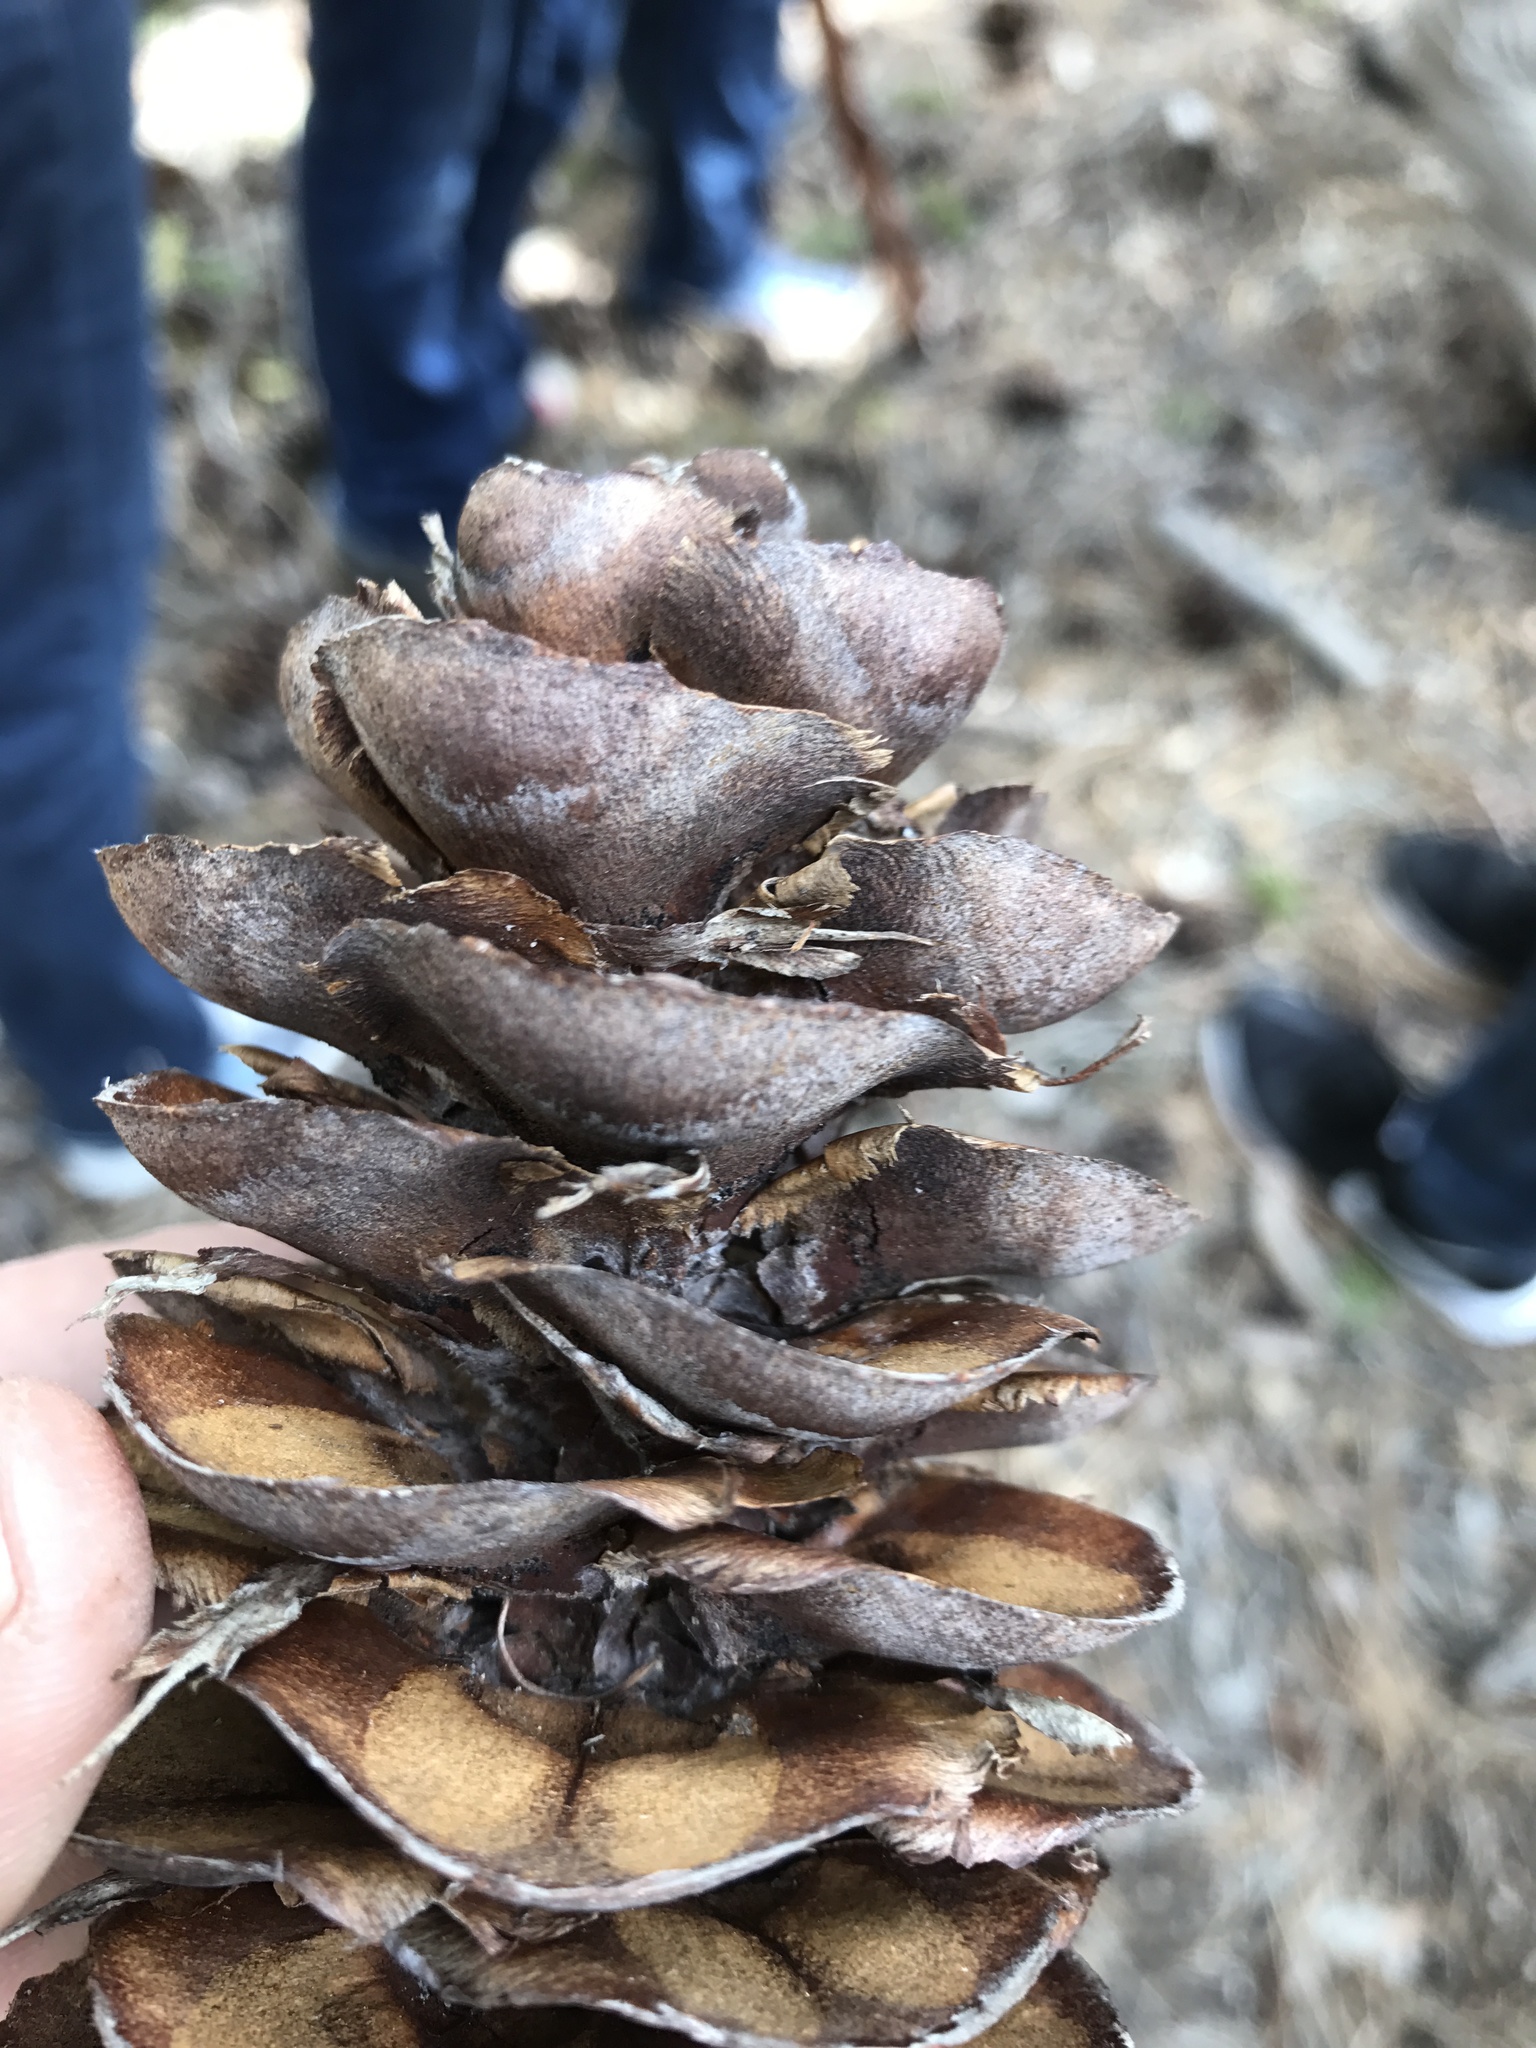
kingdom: Plantae
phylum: Tracheophyta
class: Pinopsida
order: Pinales
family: Pinaceae
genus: Pseudotsuga
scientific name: Pseudotsuga macrocarpa
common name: Big-cone douglas-fir
